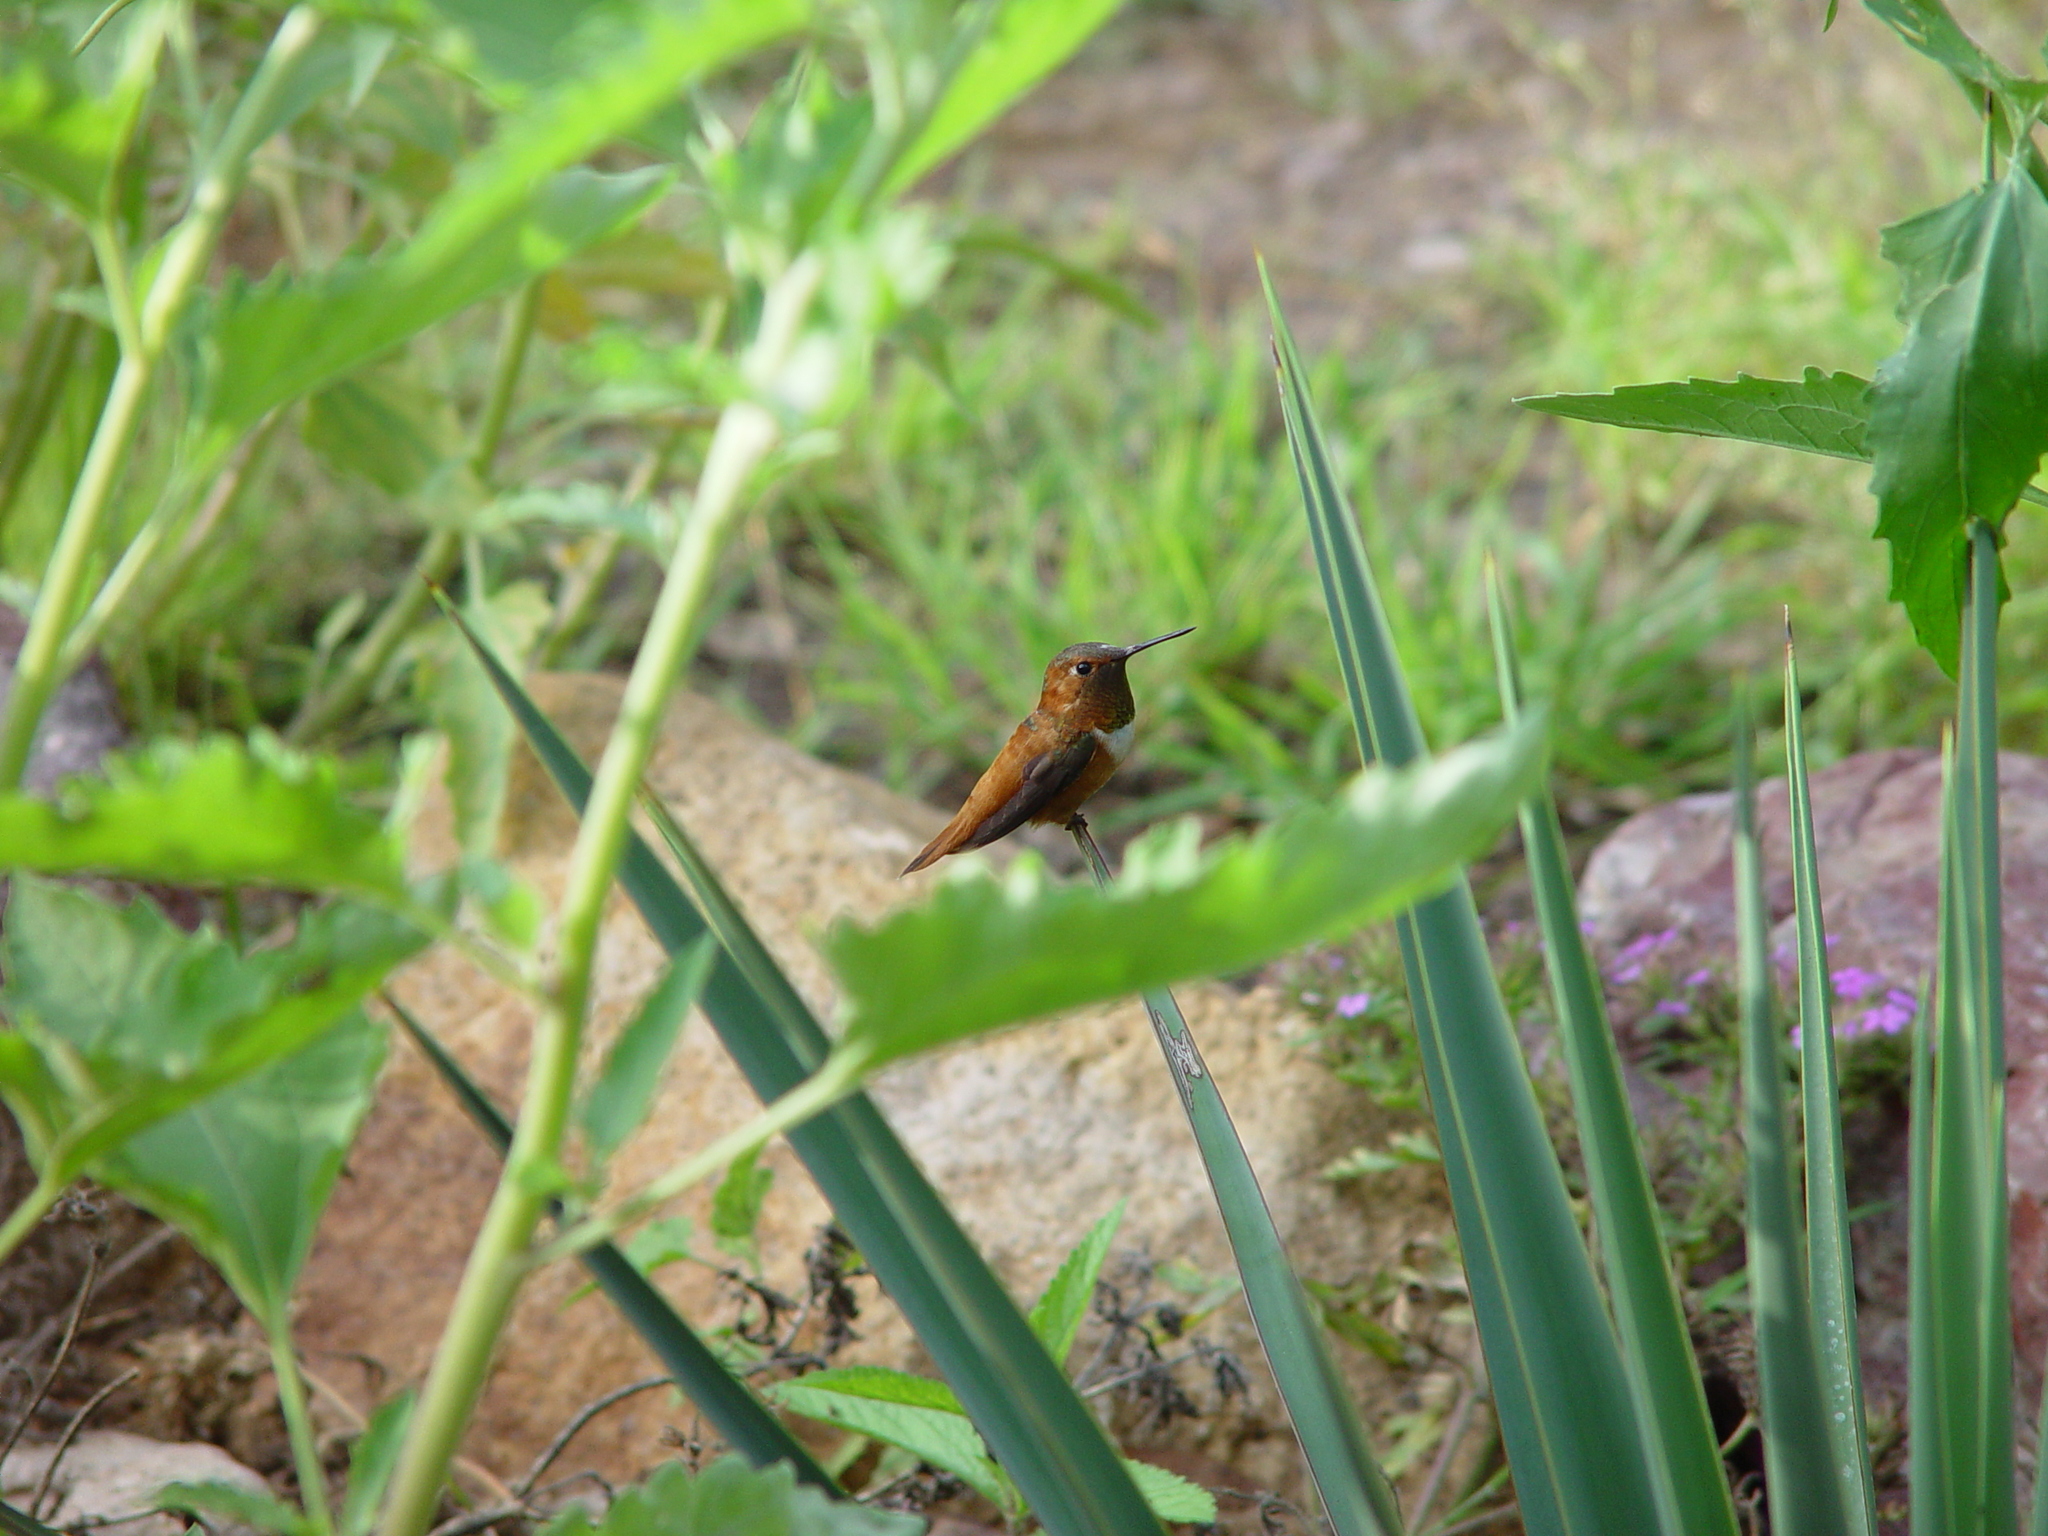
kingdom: Animalia
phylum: Chordata
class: Aves
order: Apodiformes
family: Trochilidae
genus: Selasphorus
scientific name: Selasphorus rufus
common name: Rufous hummingbird
